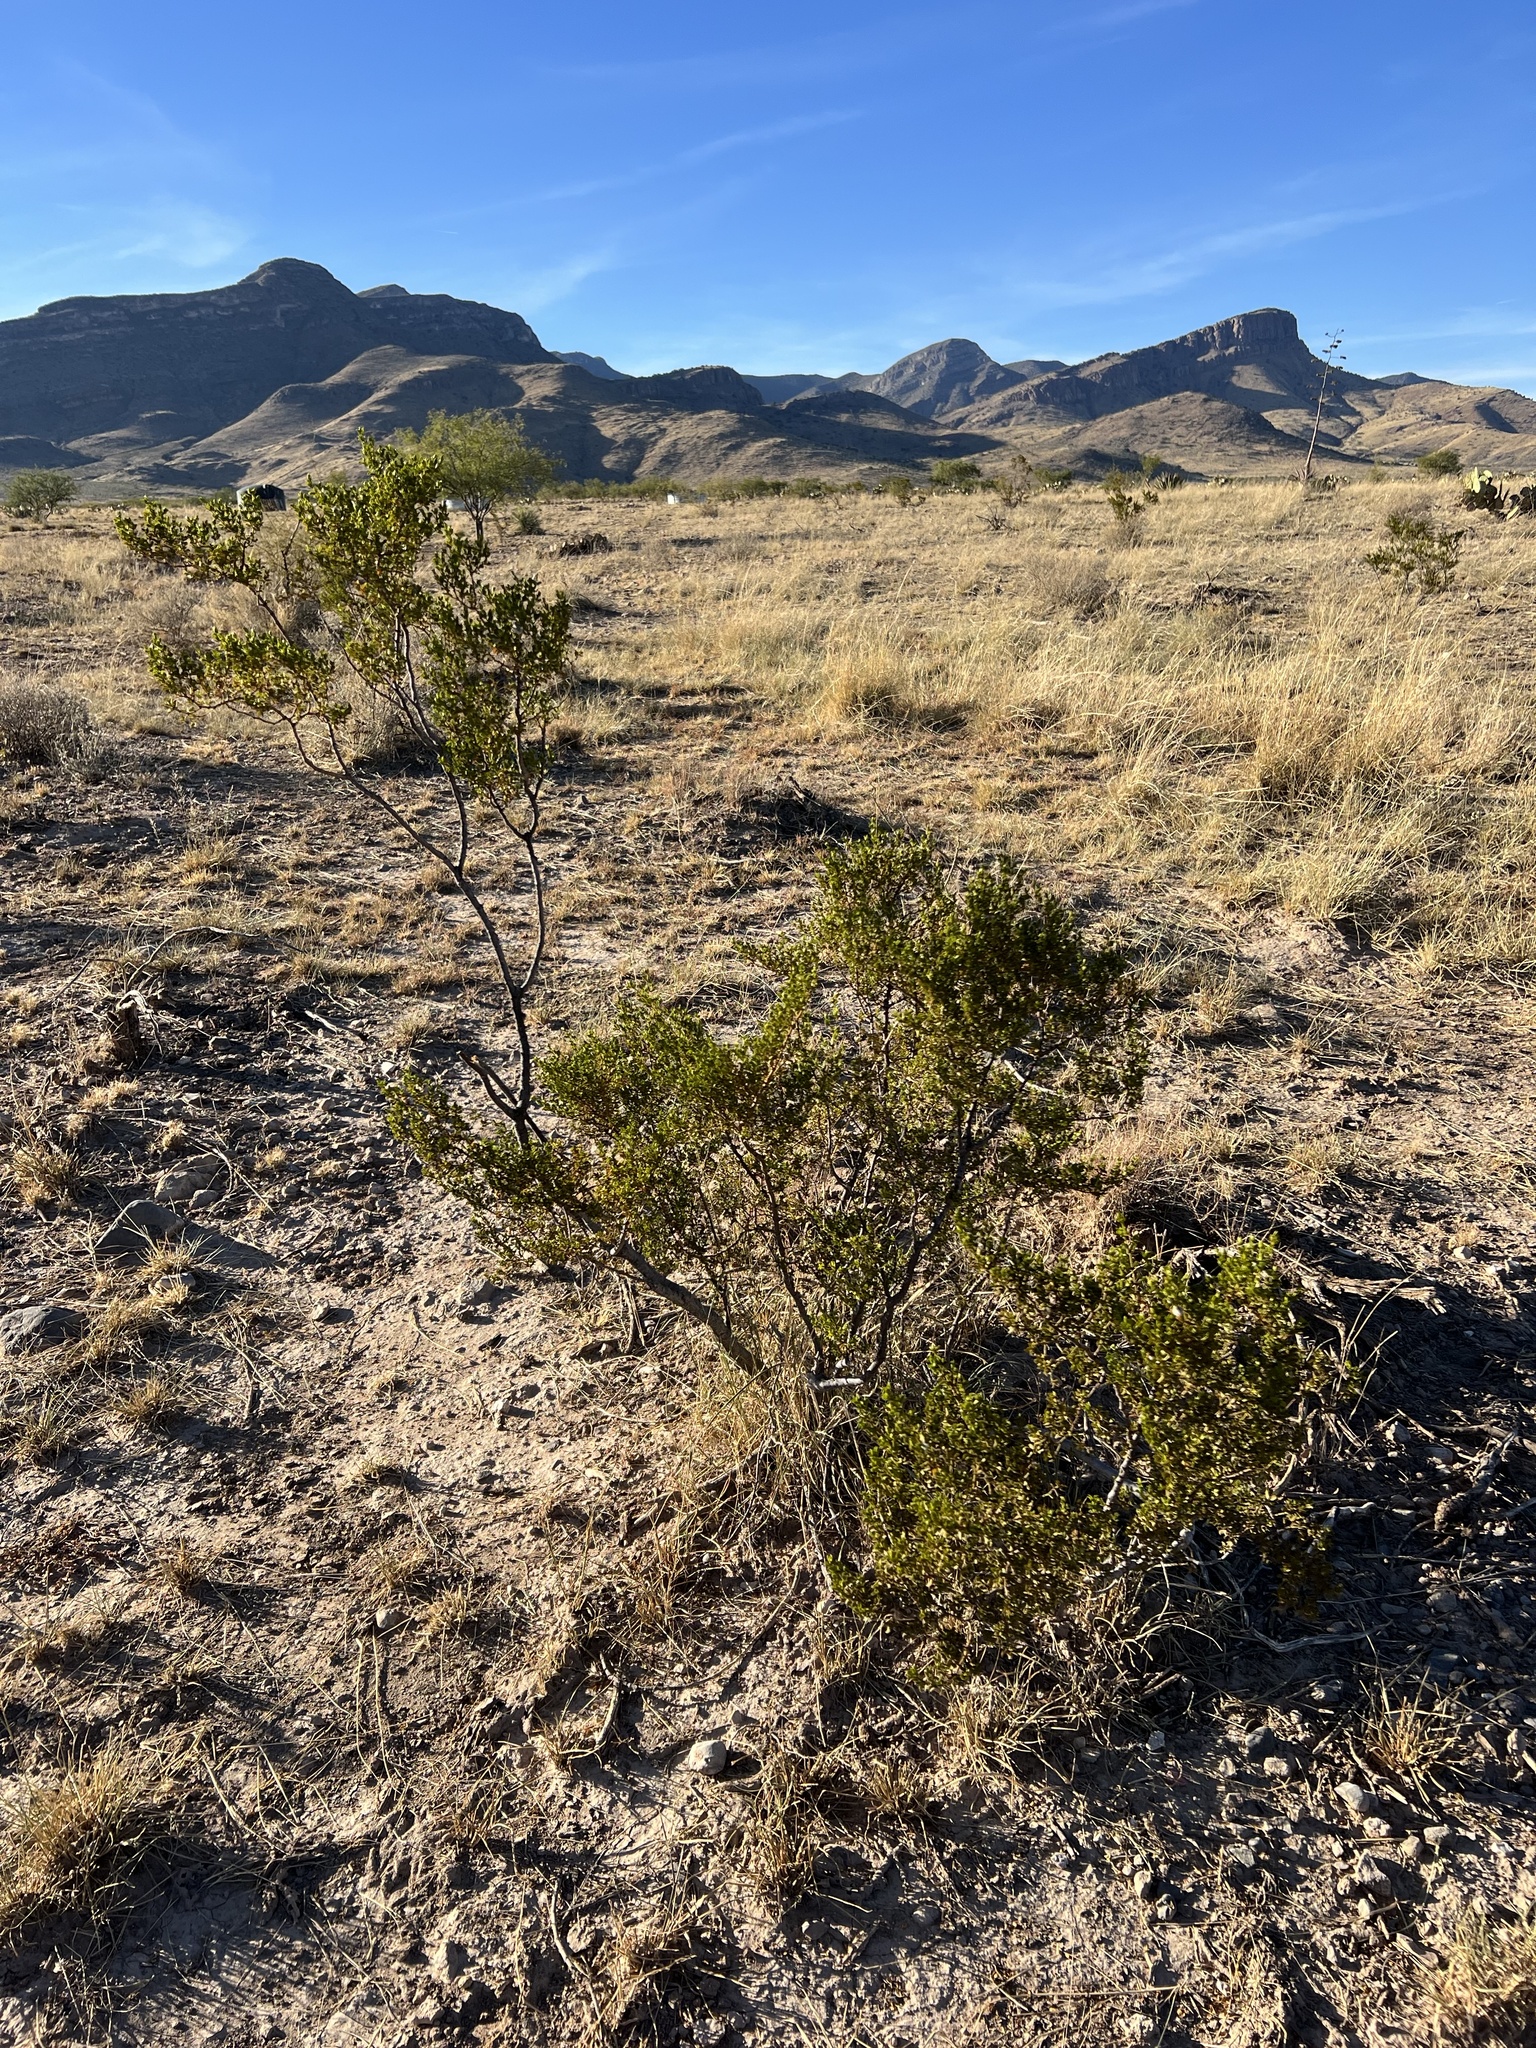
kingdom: Plantae
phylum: Tracheophyta
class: Magnoliopsida
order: Zygophyllales
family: Zygophyllaceae
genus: Larrea
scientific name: Larrea tridentata
